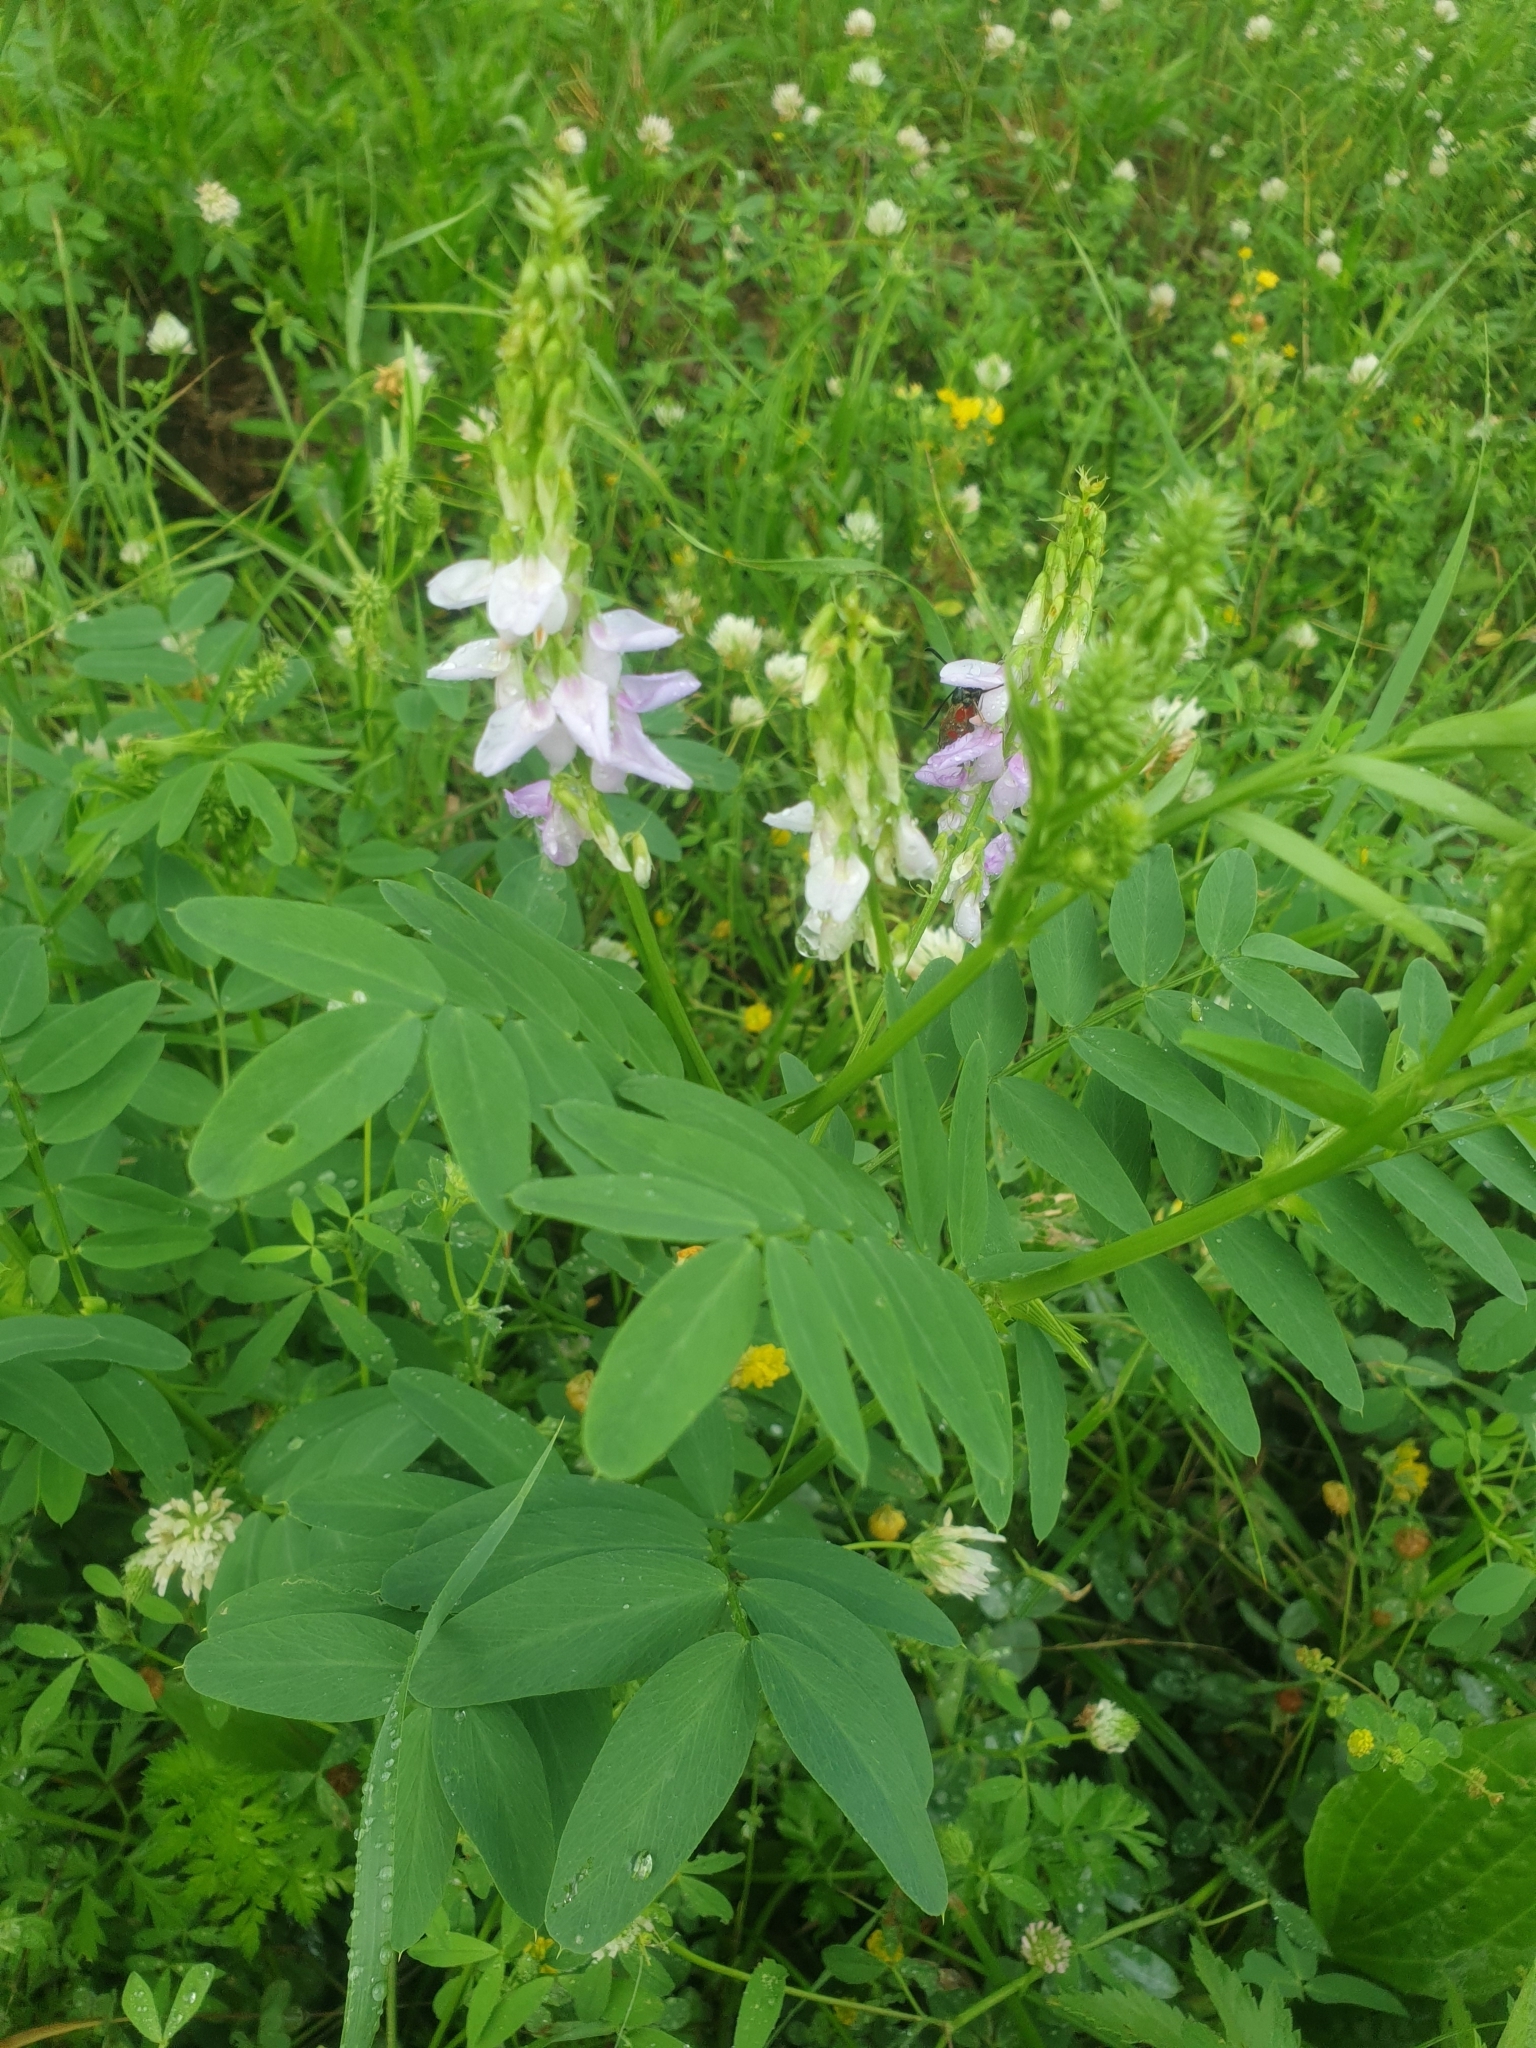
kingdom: Plantae
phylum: Tracheophyta
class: Magnoliopsida
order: Fabales
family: Fabaceae
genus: Galega
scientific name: Galega officinalis
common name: Goat's-rue
